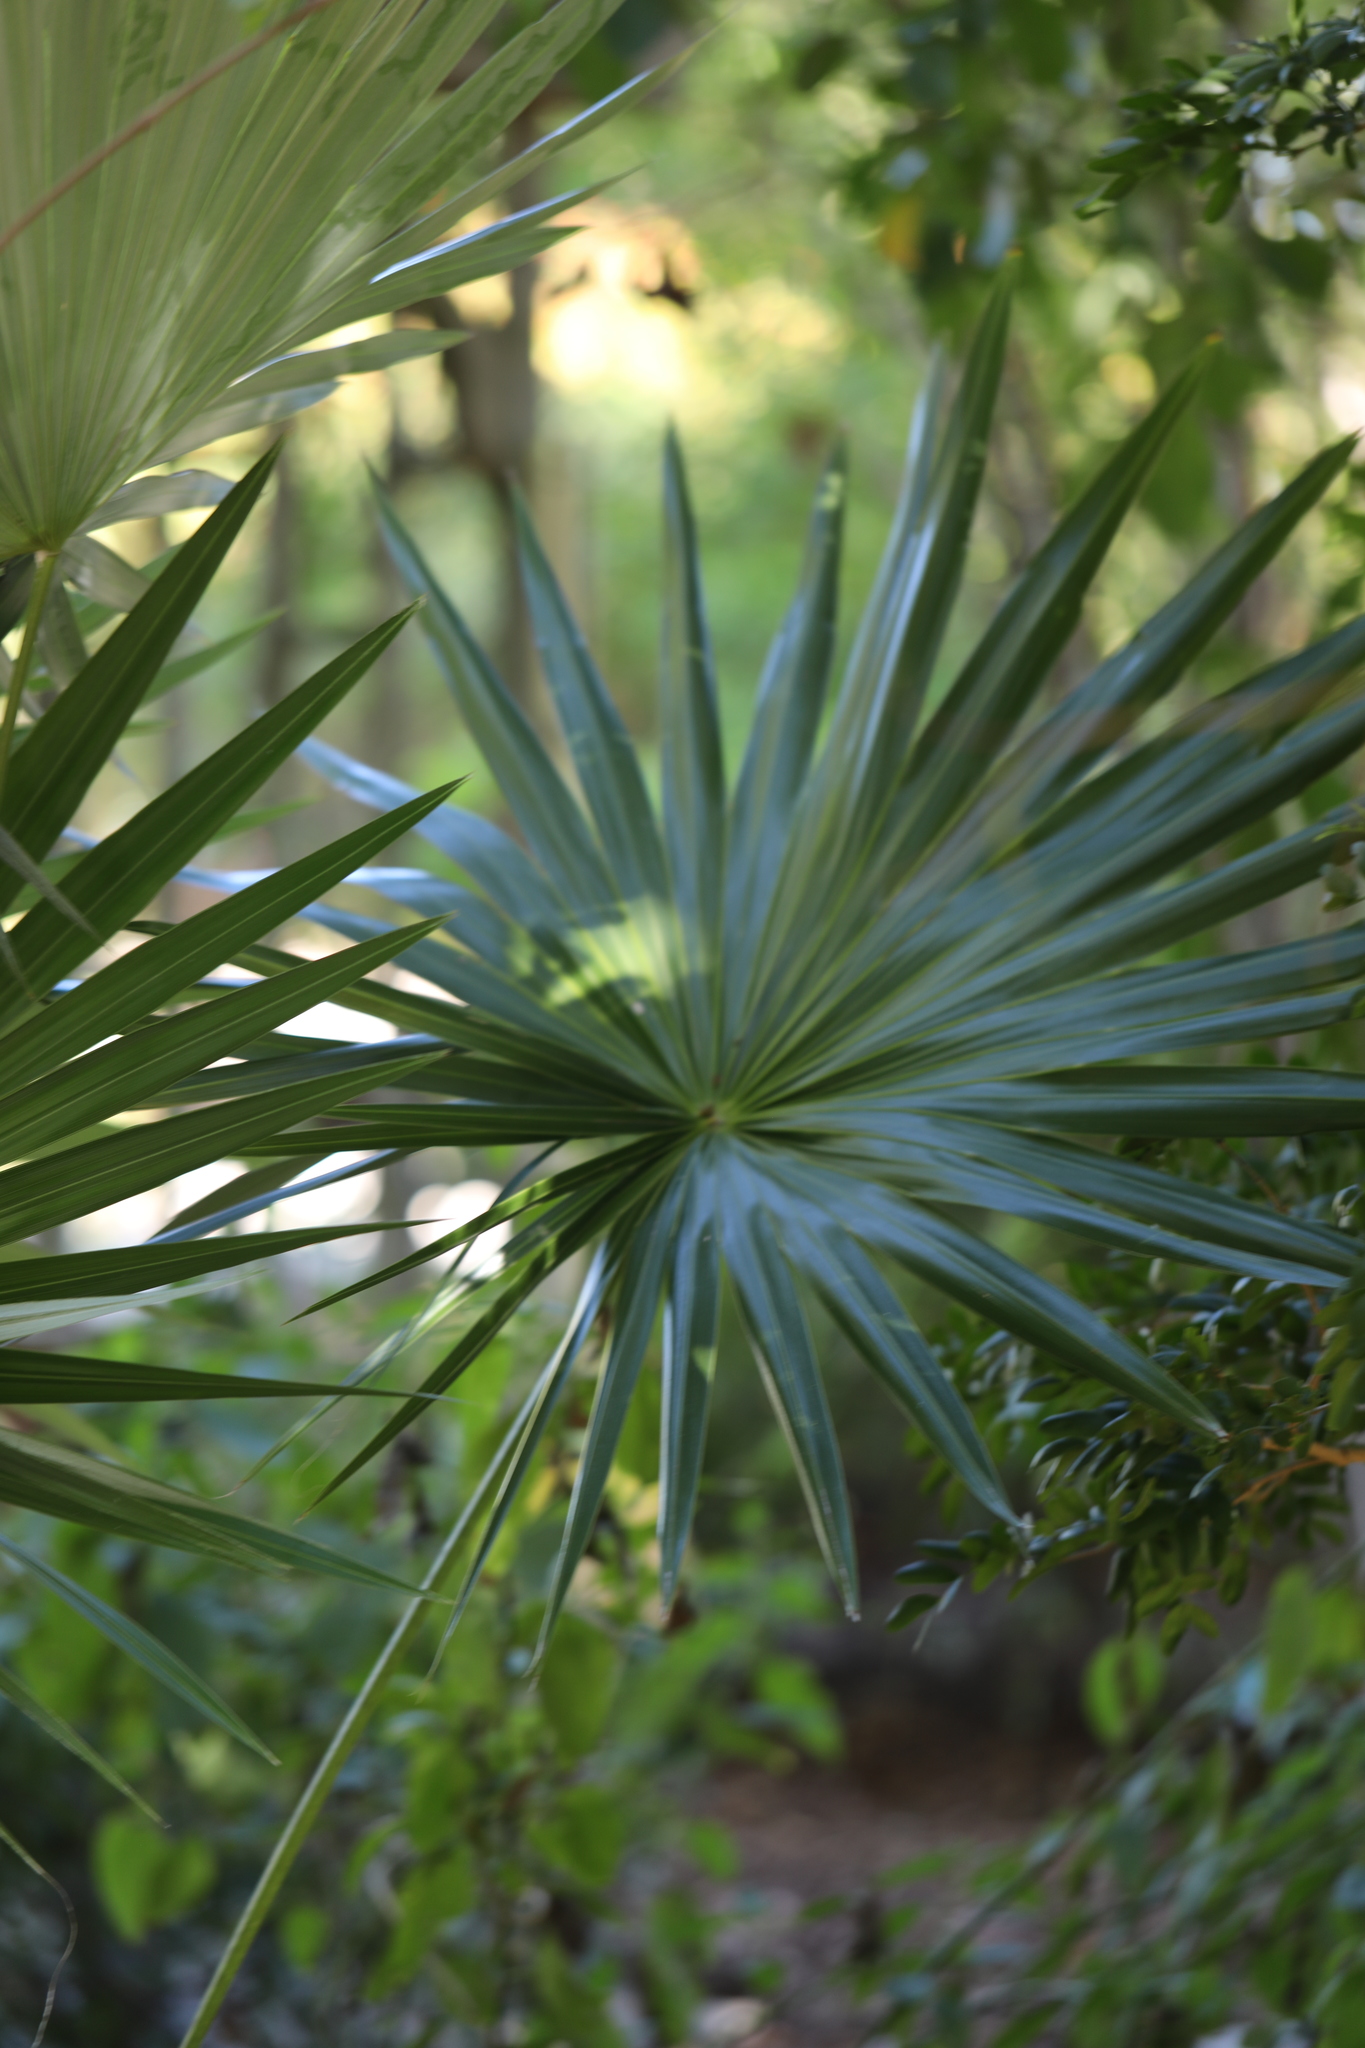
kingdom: Plantae
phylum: Tracheophyta
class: Liliopsida
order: Arecales
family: Arecaceae
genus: Leucothrinax
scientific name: Leucothrinax morrisii
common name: Key palm
